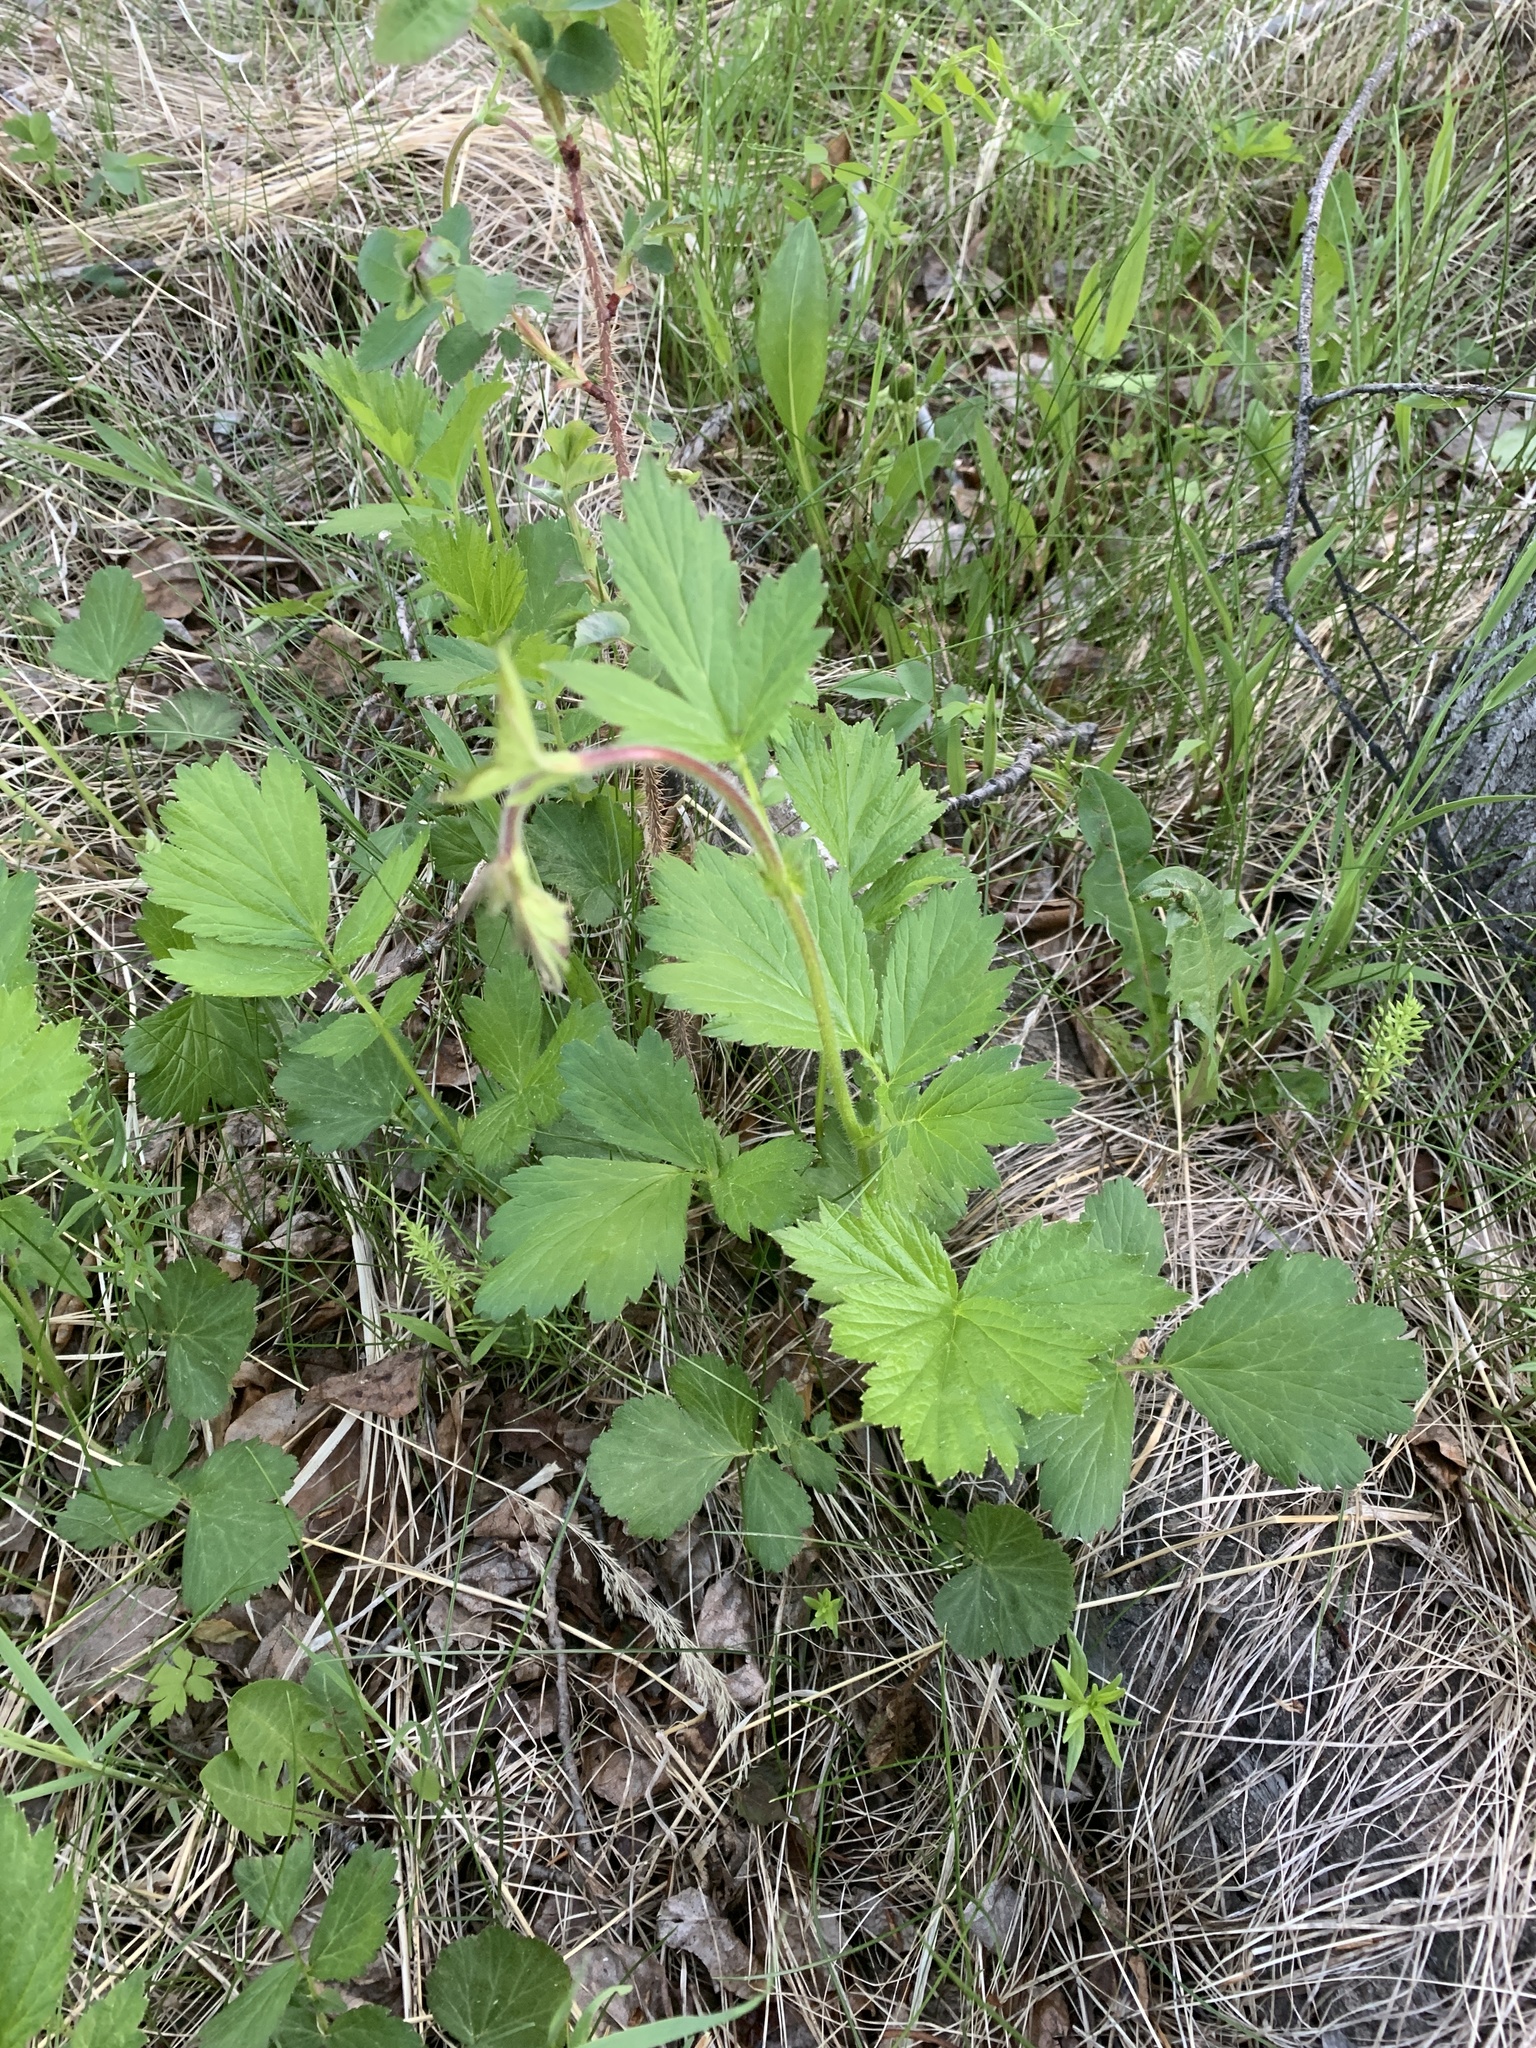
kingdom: Plantae
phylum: Tracheophyta
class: Magnoliopsida
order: Rosales
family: Rosaceae
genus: Geum
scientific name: Geum rivale
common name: Water avens
